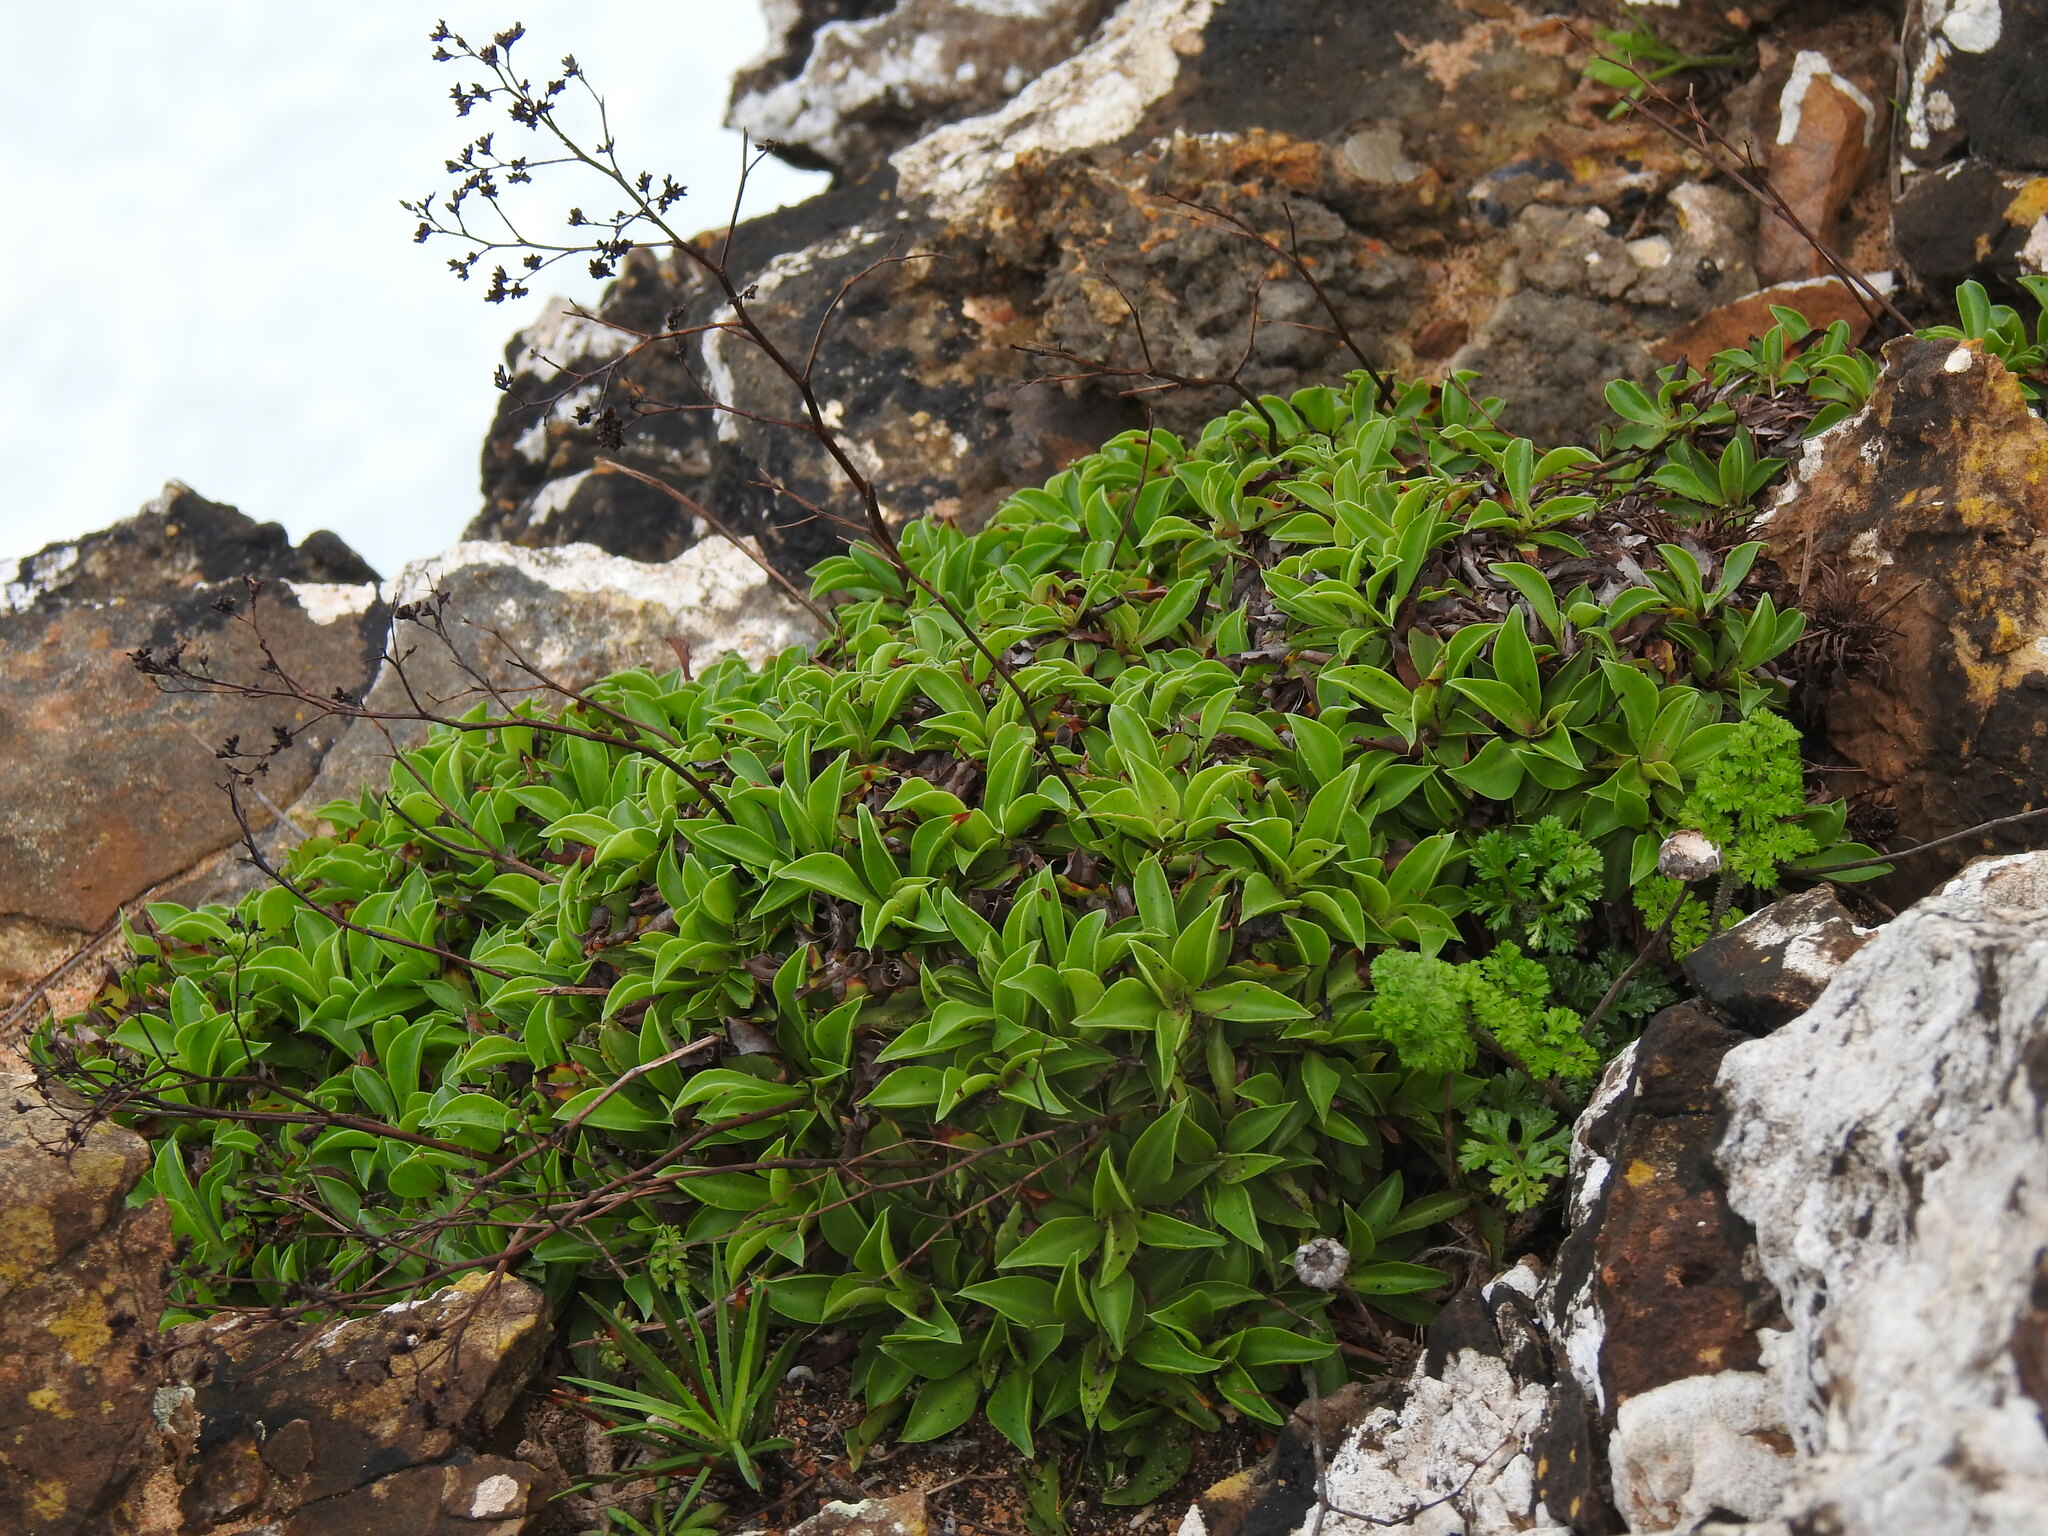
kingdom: Plantae
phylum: Tracheophyta
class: Magnoliopsida
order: Caryophyllales
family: Plumbaginaceae
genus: Limonium
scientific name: Limonium auriculifolium
